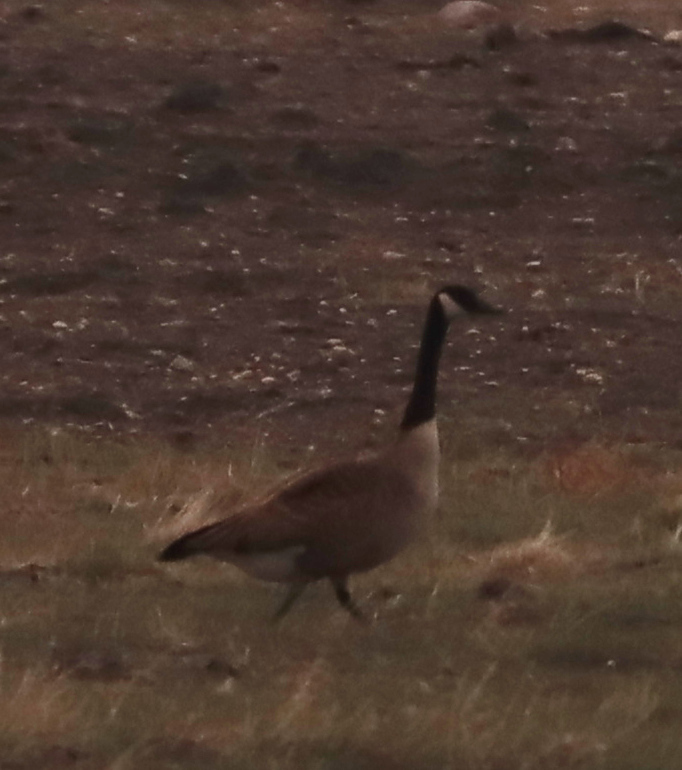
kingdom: Animalia
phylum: Chordata
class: Aves
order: Anseriformes
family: Anatidae
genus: Branta
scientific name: Branta canadensis
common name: Canada goose
